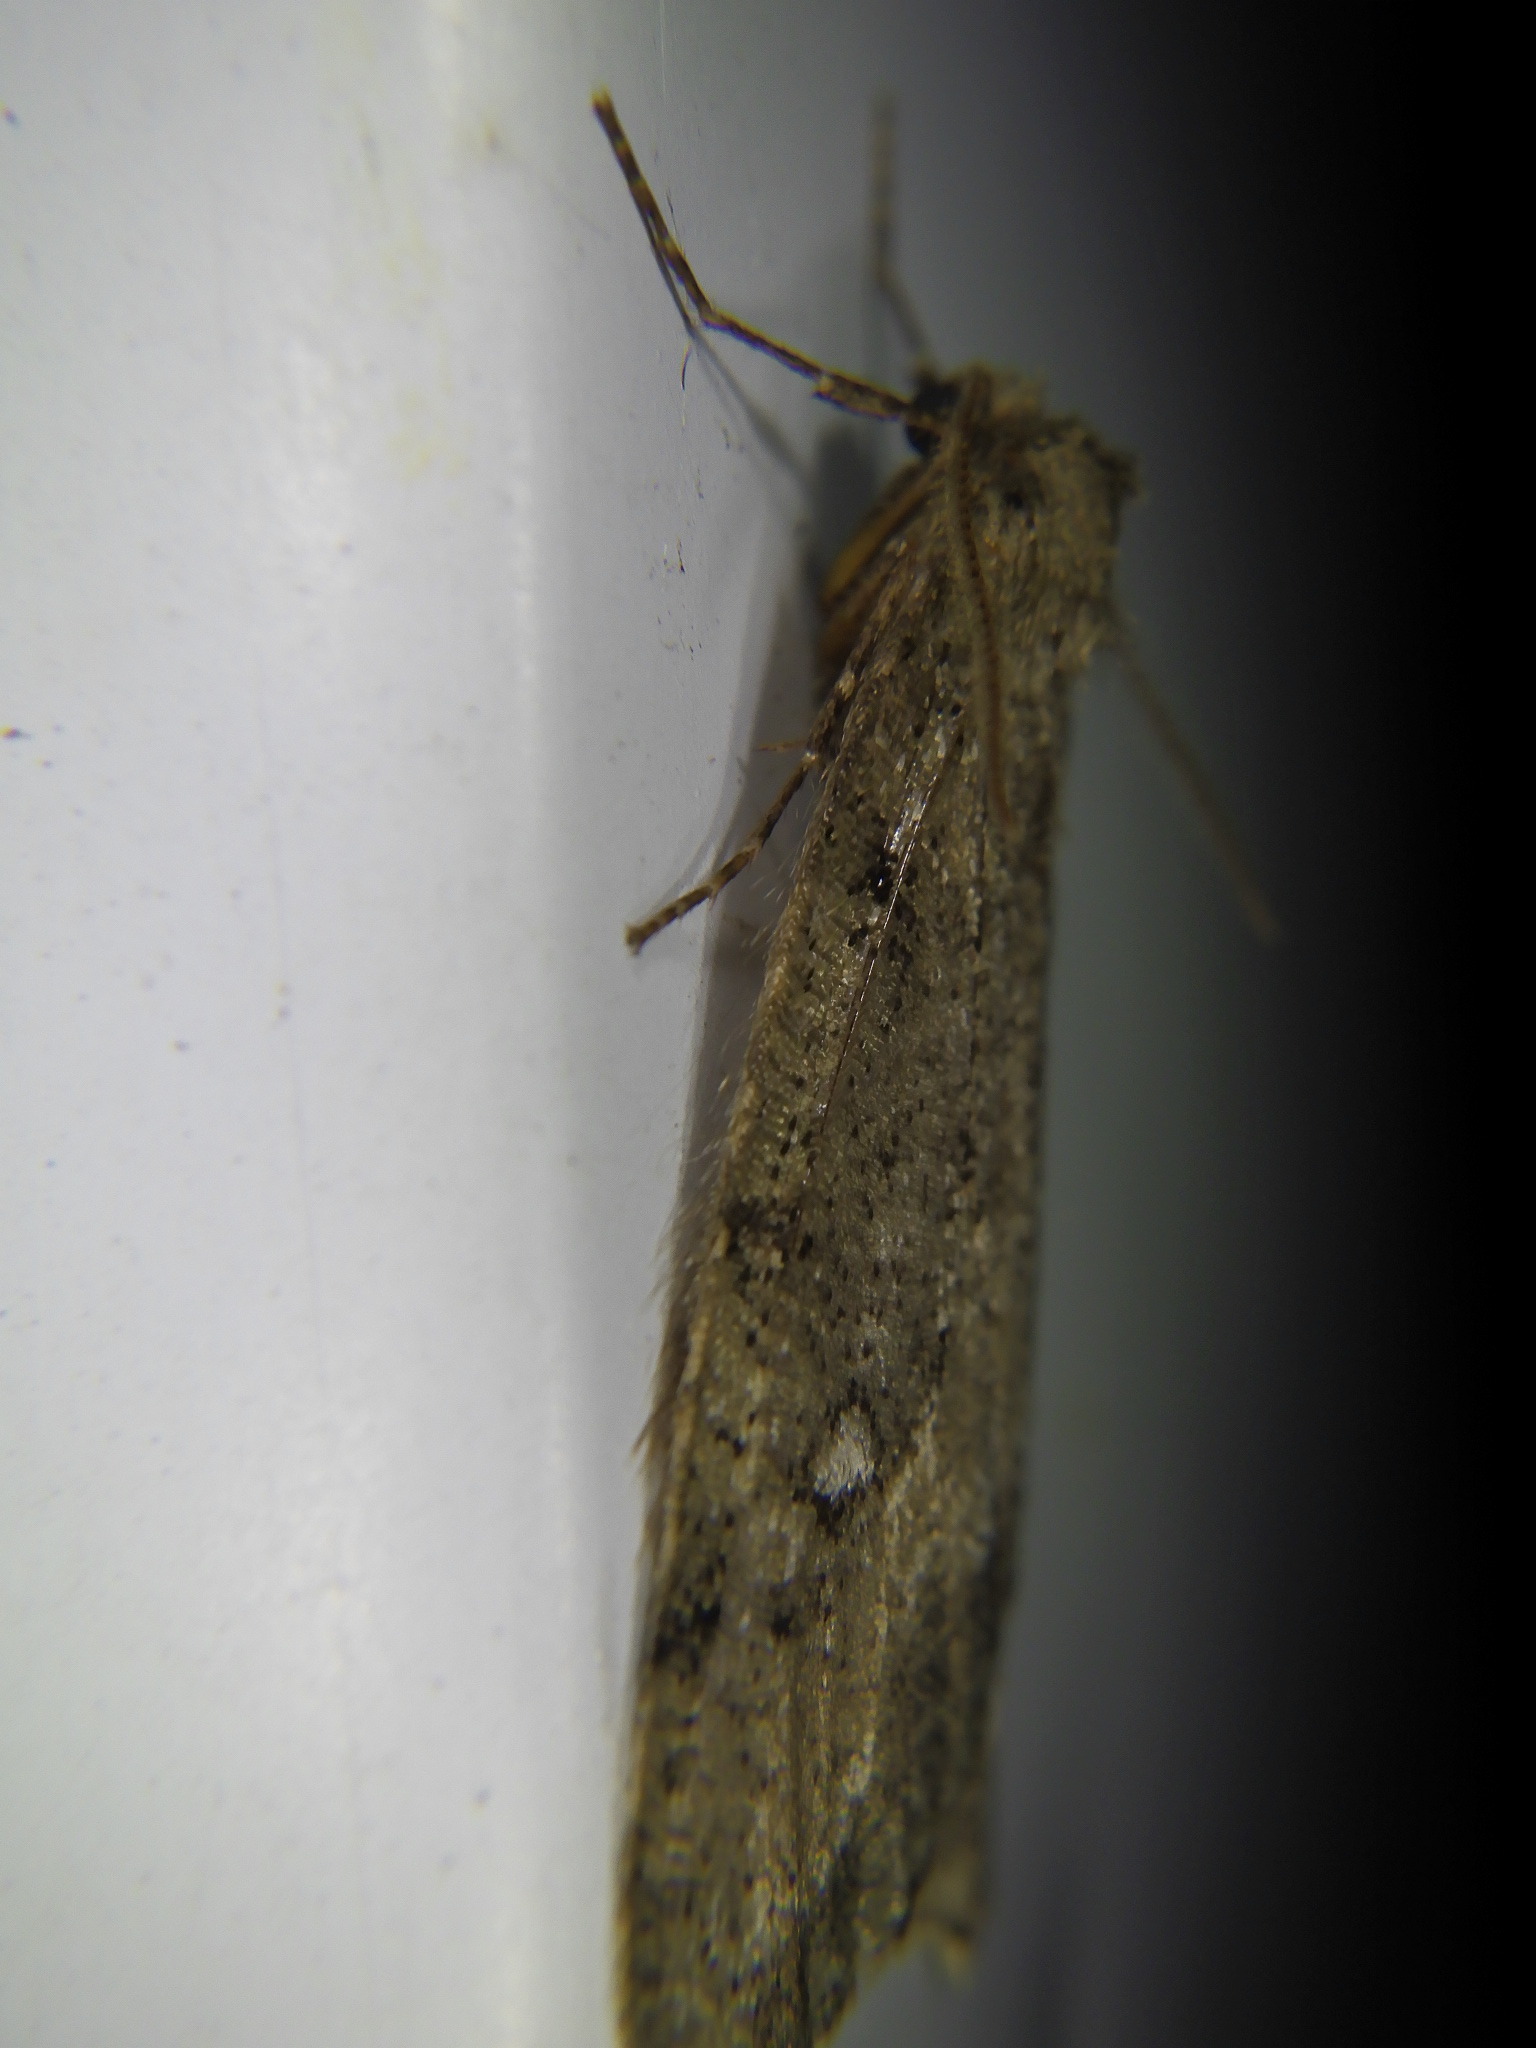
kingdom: Animalia
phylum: Arthropoda
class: Insecta
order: Lepidoptera
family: Geometridae
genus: Paleacrita
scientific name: Paleacrita merriccata
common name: White-spotted canker worm
